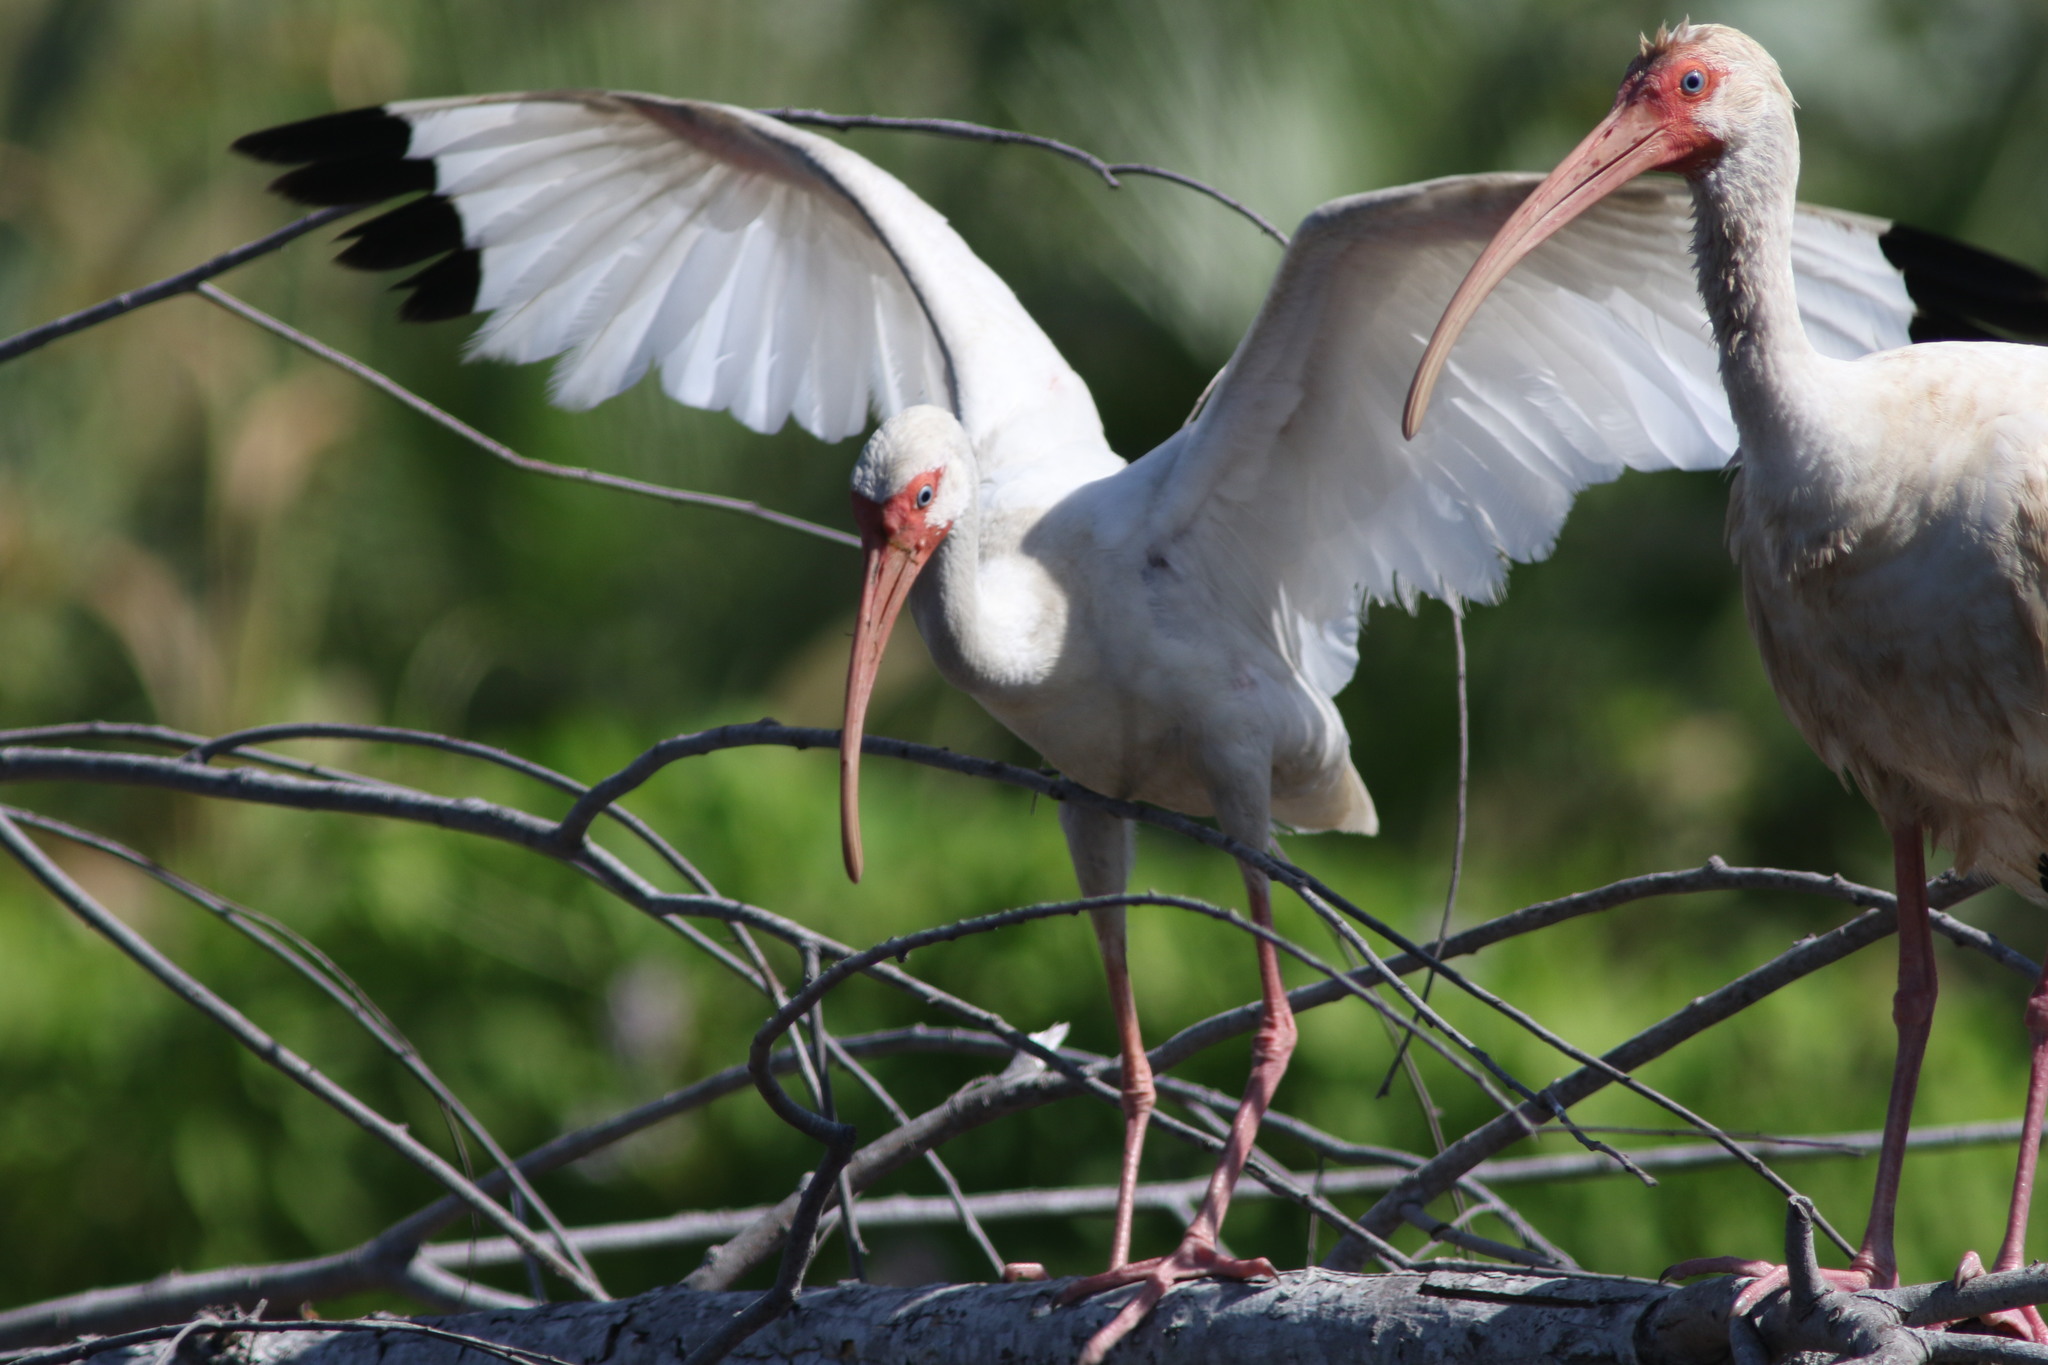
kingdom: Animalia
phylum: Chordata
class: Aves
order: Pelecaniformes
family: Threskiornithidae
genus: Eudocimus
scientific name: Eudocimus albus
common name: White ibis
